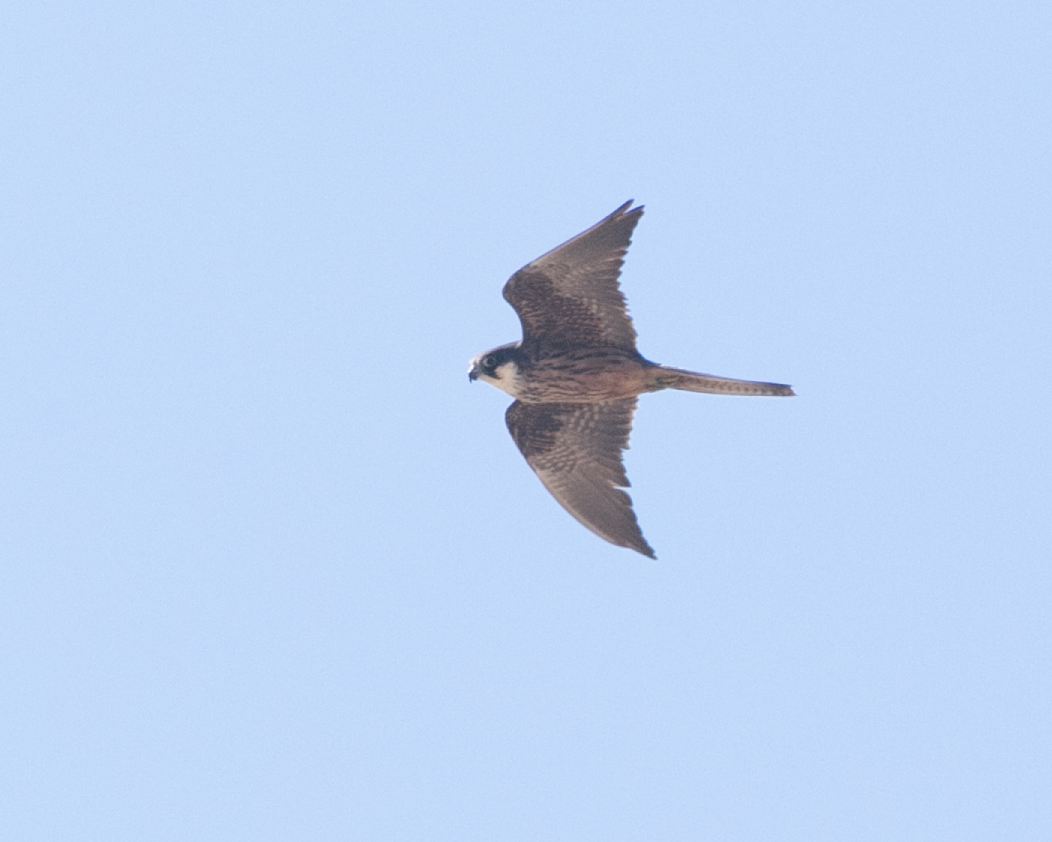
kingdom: Animalia
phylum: Chordata
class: Aves
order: Falconiformes
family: Falconidae
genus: Falco
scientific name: Falco eleonorae
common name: Eleonora's falcon
